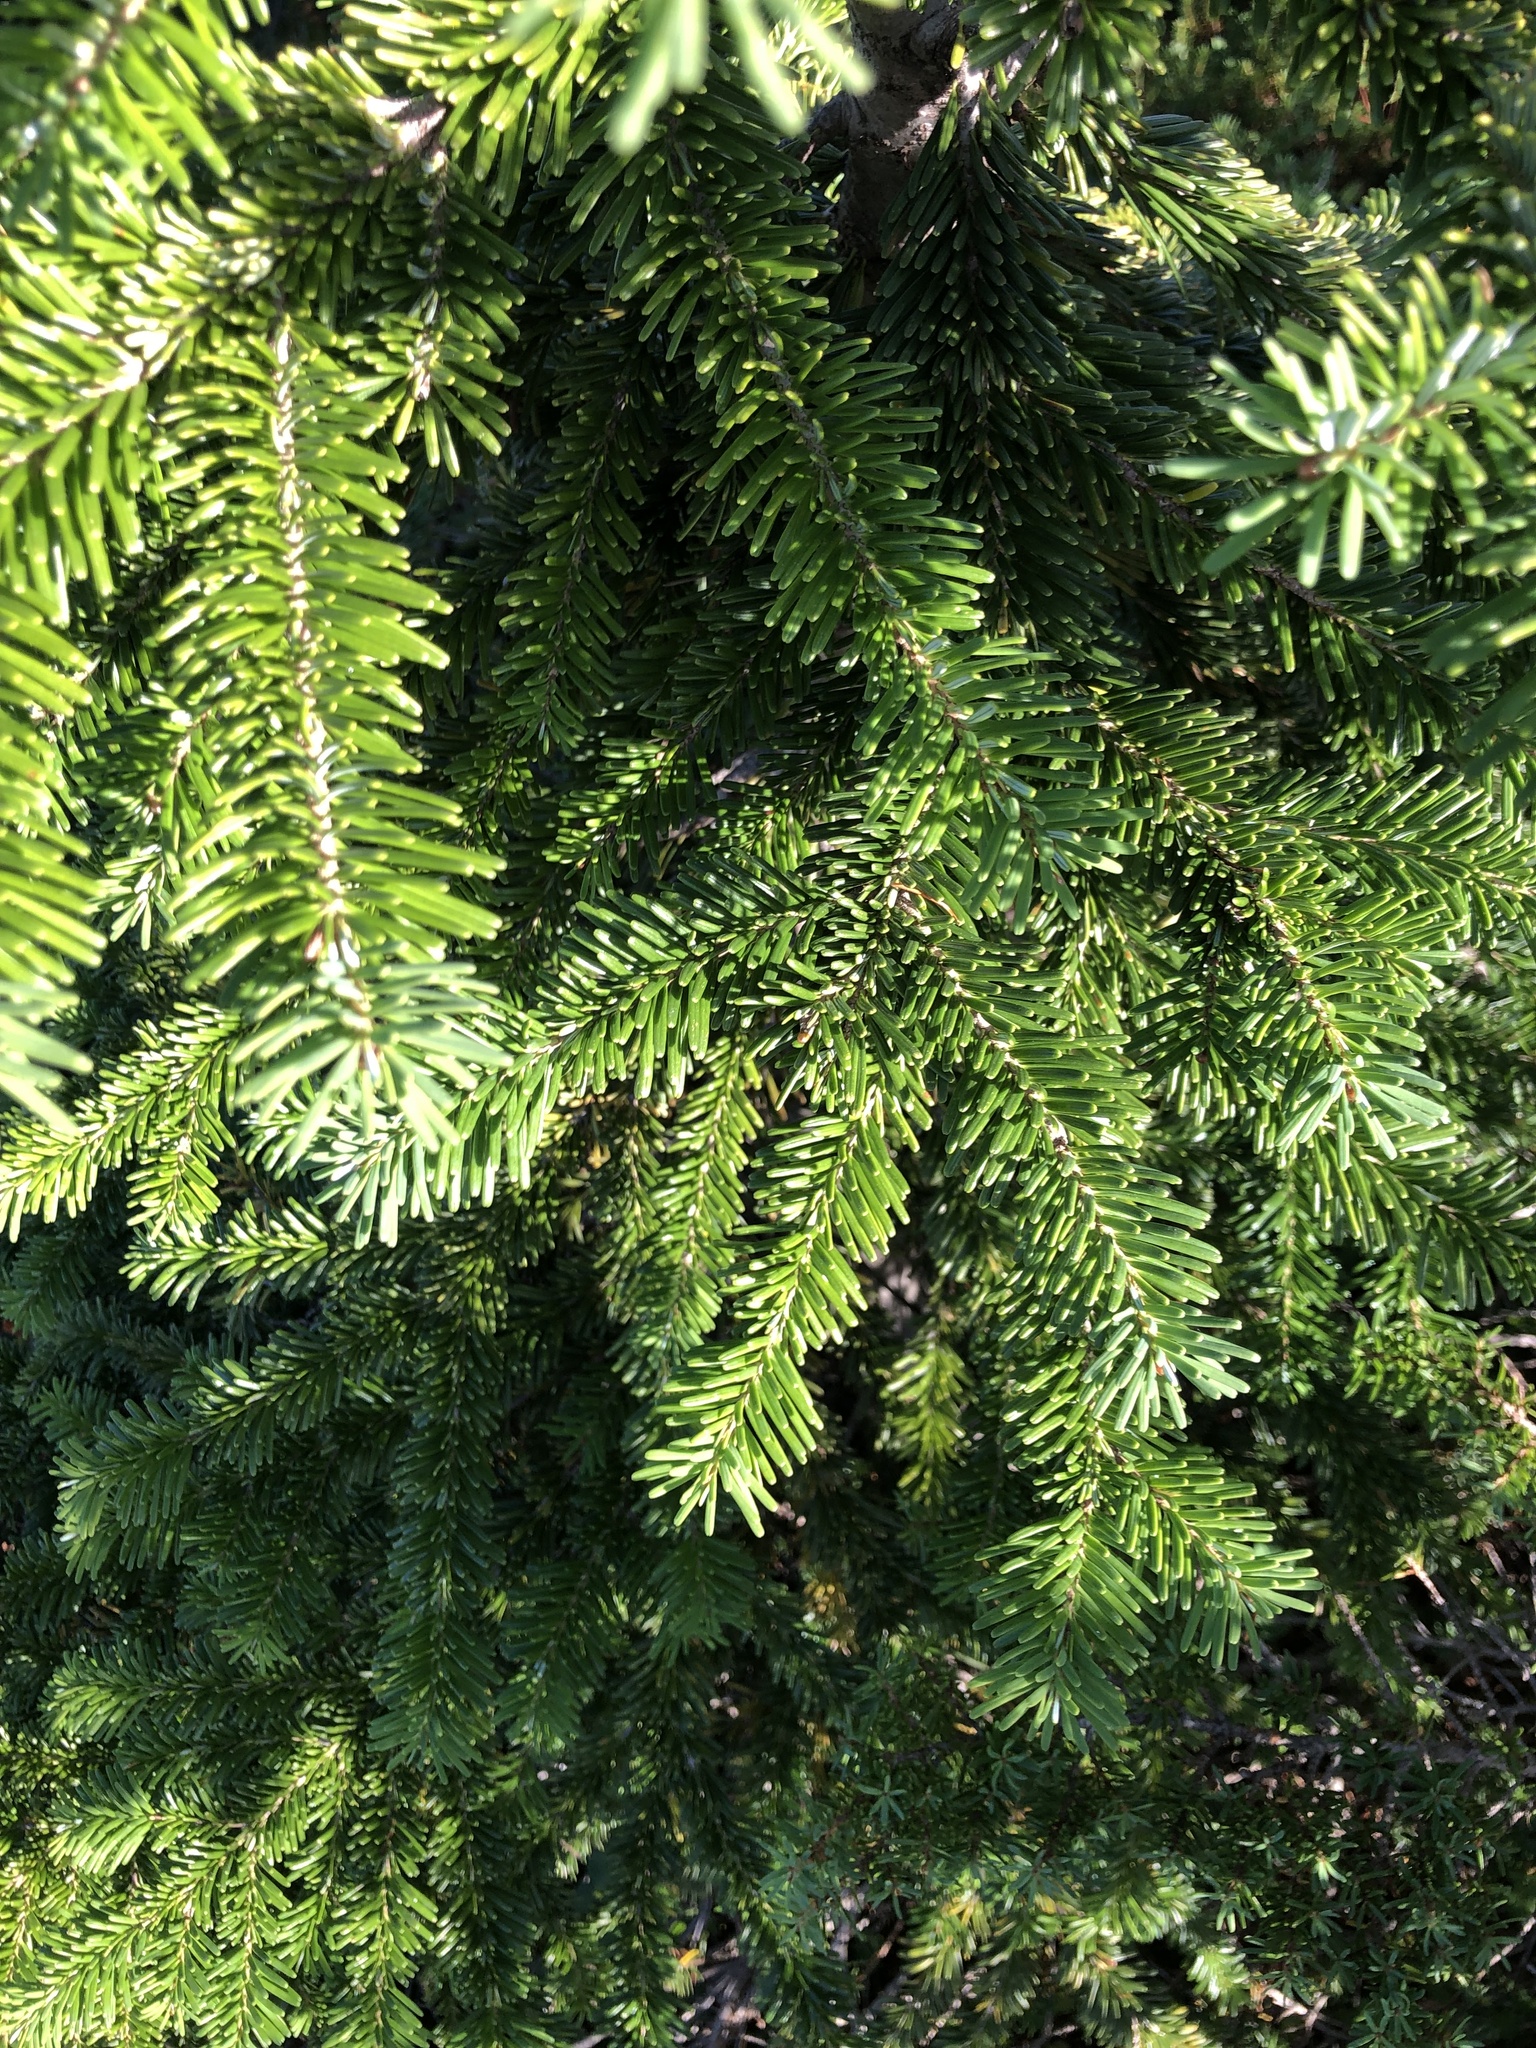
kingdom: Plantae
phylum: Tracheophyta
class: Pinopsida
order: Pinales
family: Pinaceae
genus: Abies
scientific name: Abies amabilis
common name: Pacific silver fir
